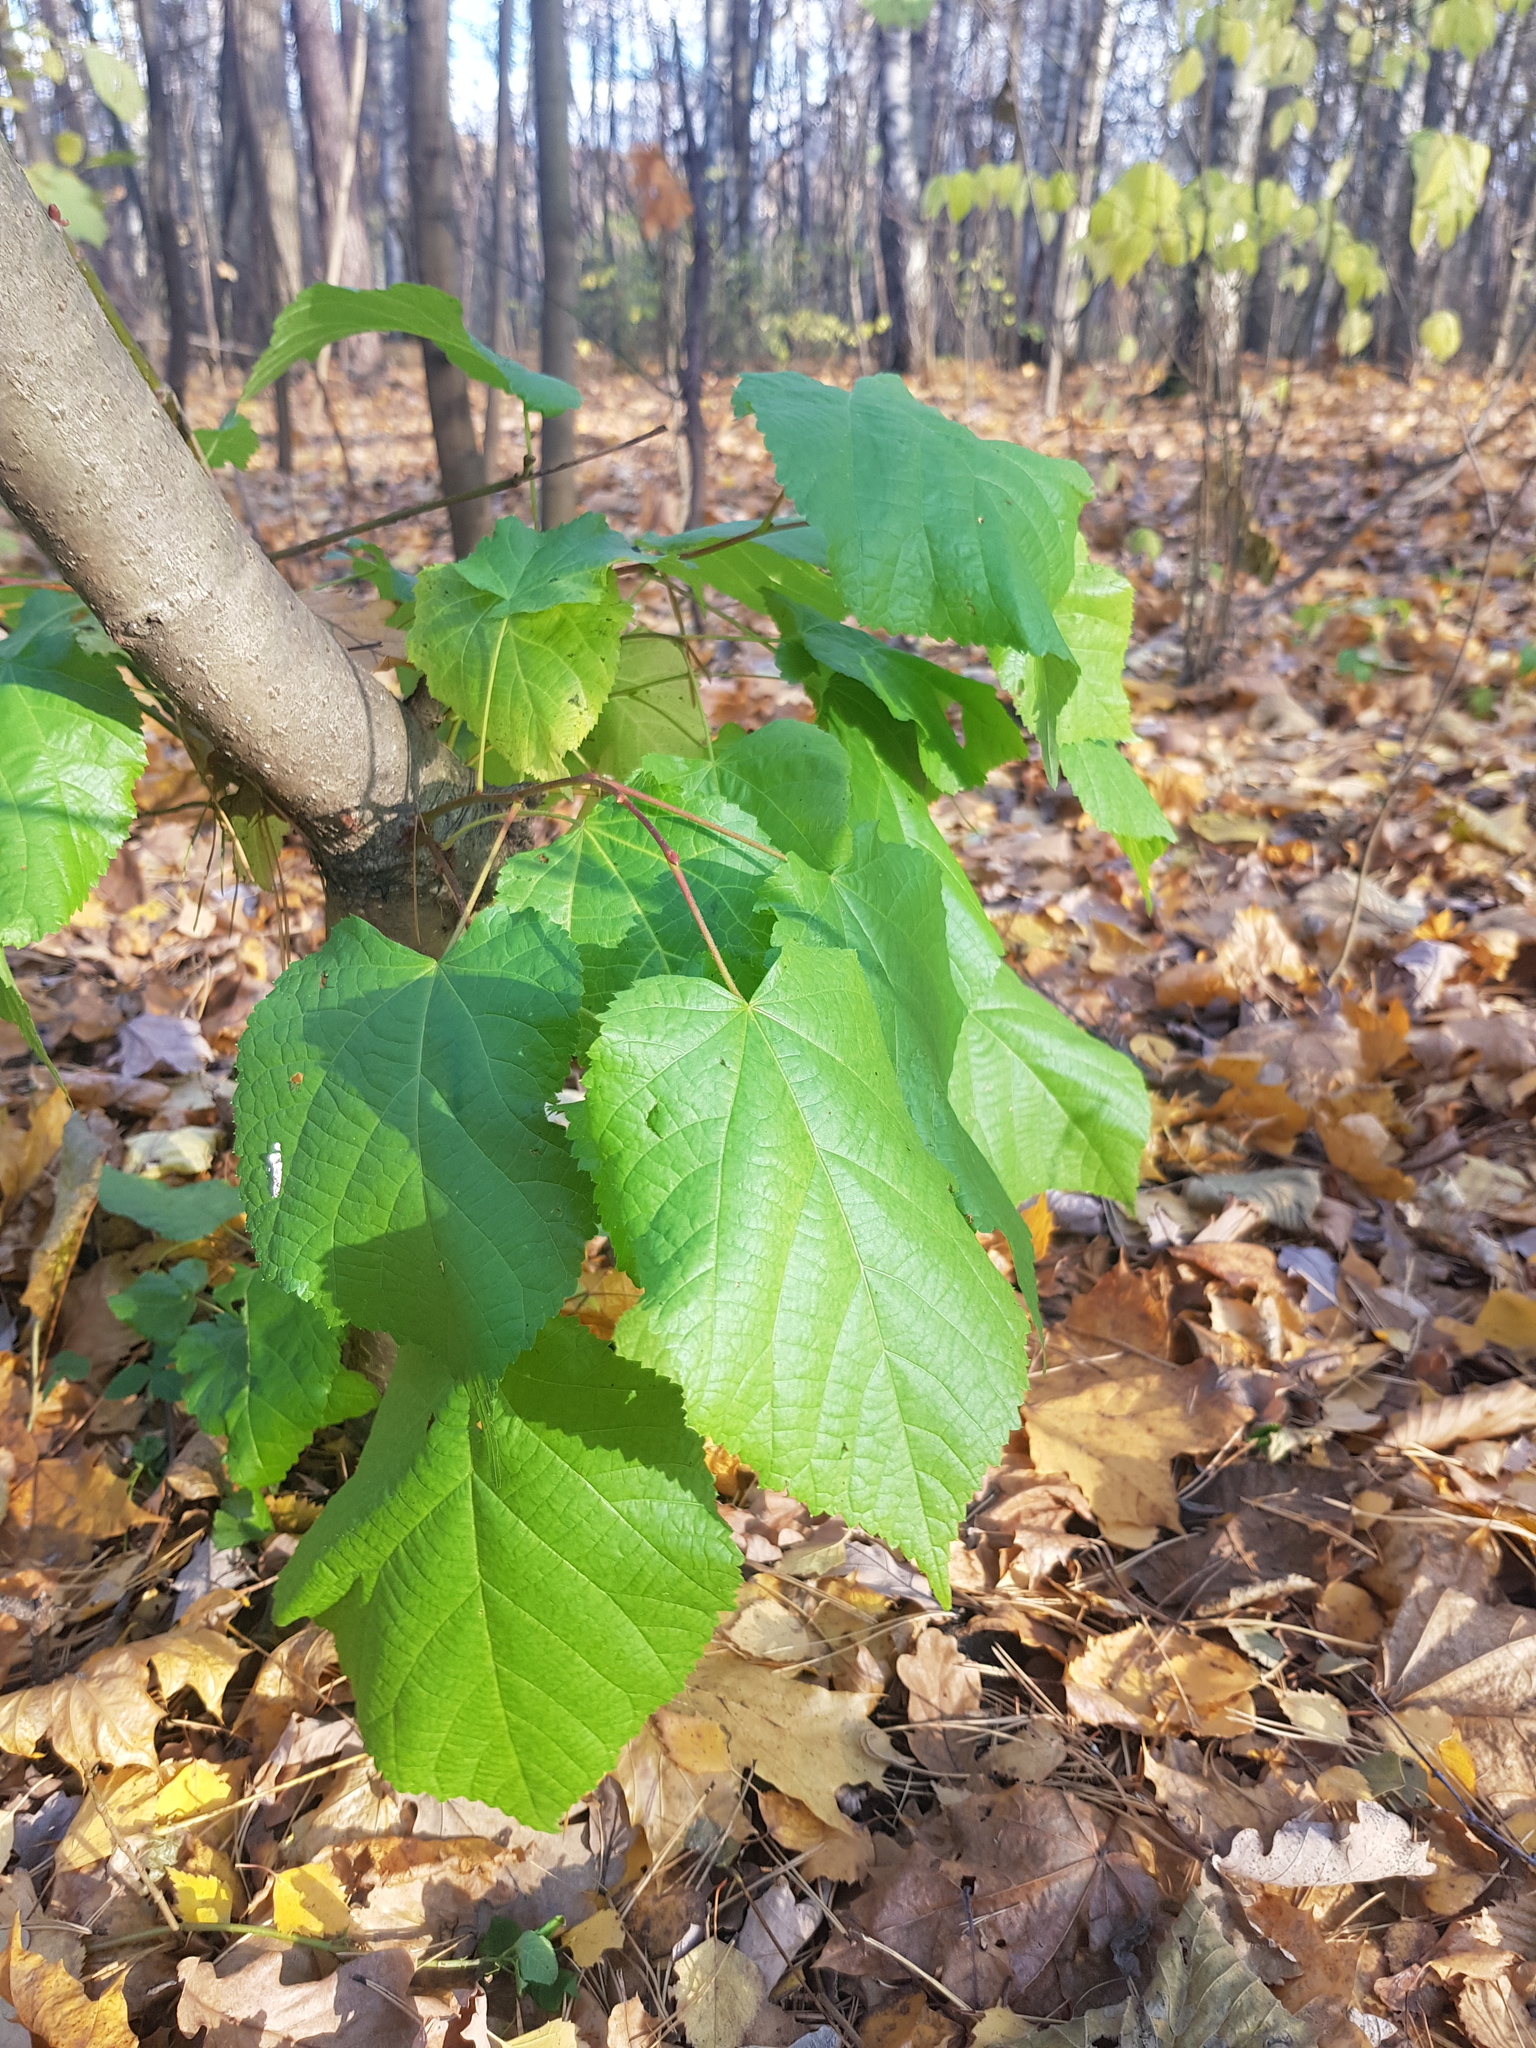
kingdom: Plantae
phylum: Tracheophyta
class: Magnoliopsida
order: Malvales
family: Malvaceae
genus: Tilia
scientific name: Tilia cordata
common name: Small-leaved lime
